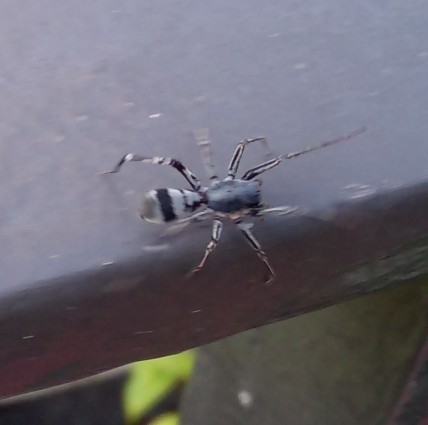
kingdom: Animalia
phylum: Arthropoda
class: Arachnida
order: Araneae
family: Corinnidae
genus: Corinnomma
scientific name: Corinnomma severum
